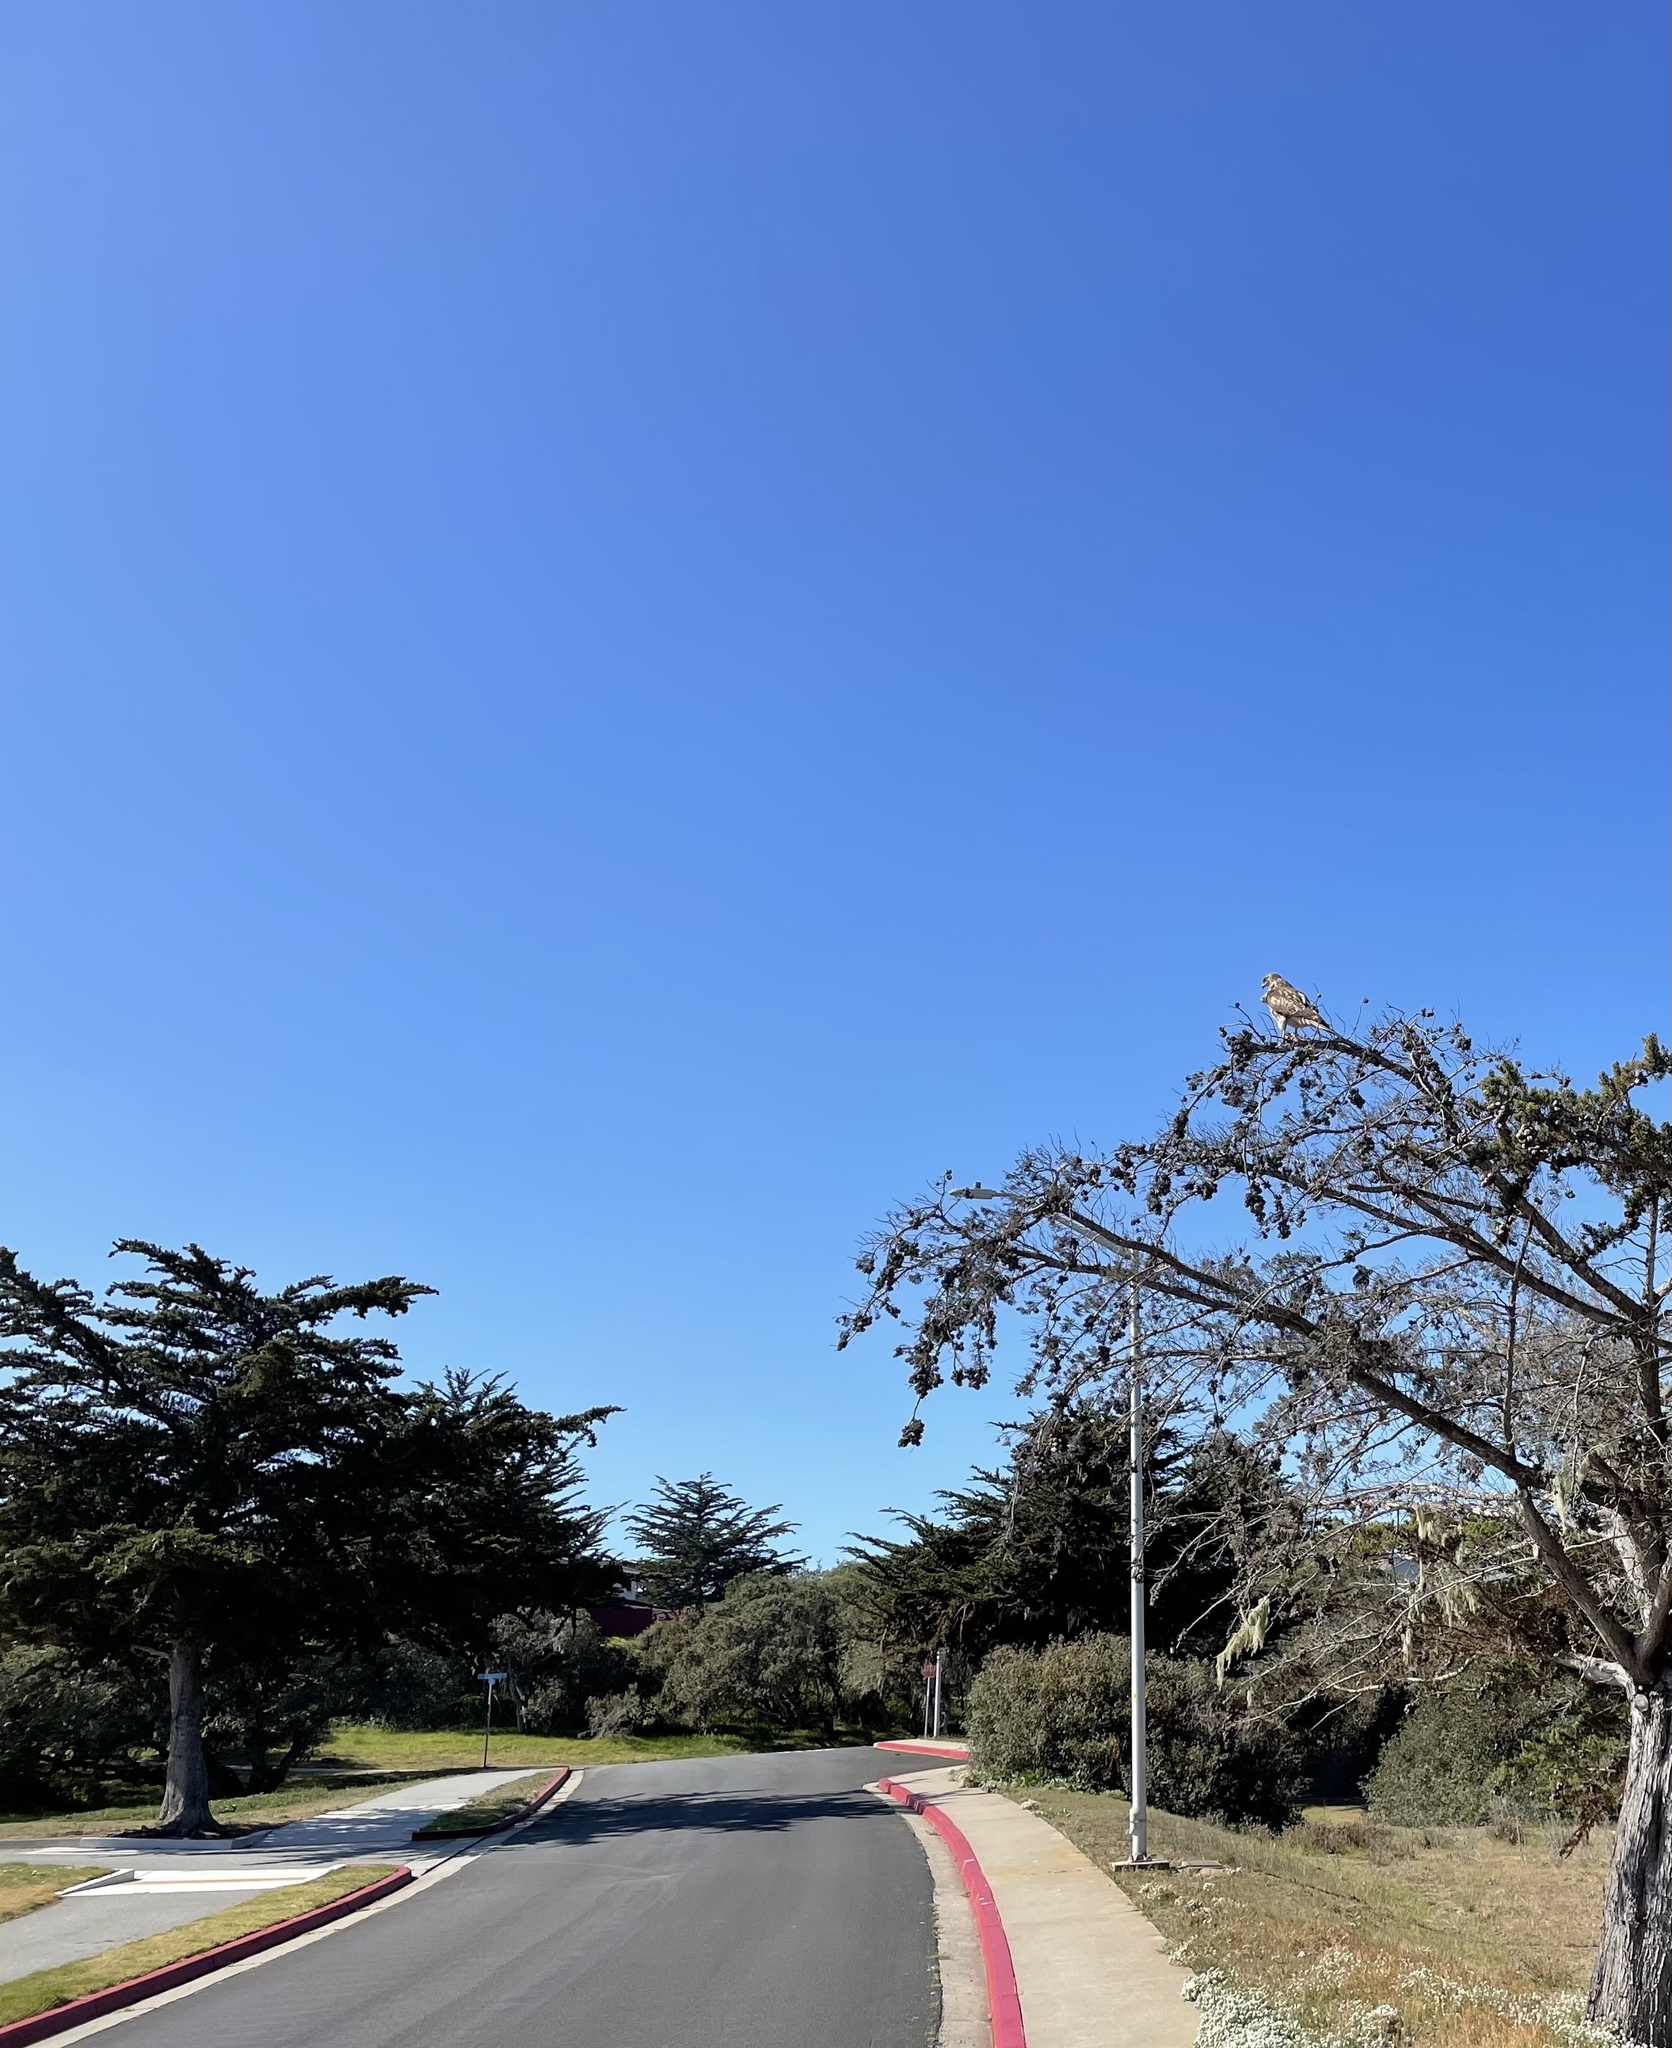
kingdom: Animalia
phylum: Chordata
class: Aves
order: Accipitriformes
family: Accipitridae
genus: Buteo
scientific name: Buteo jamaicensis
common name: Red-tailed hawk
